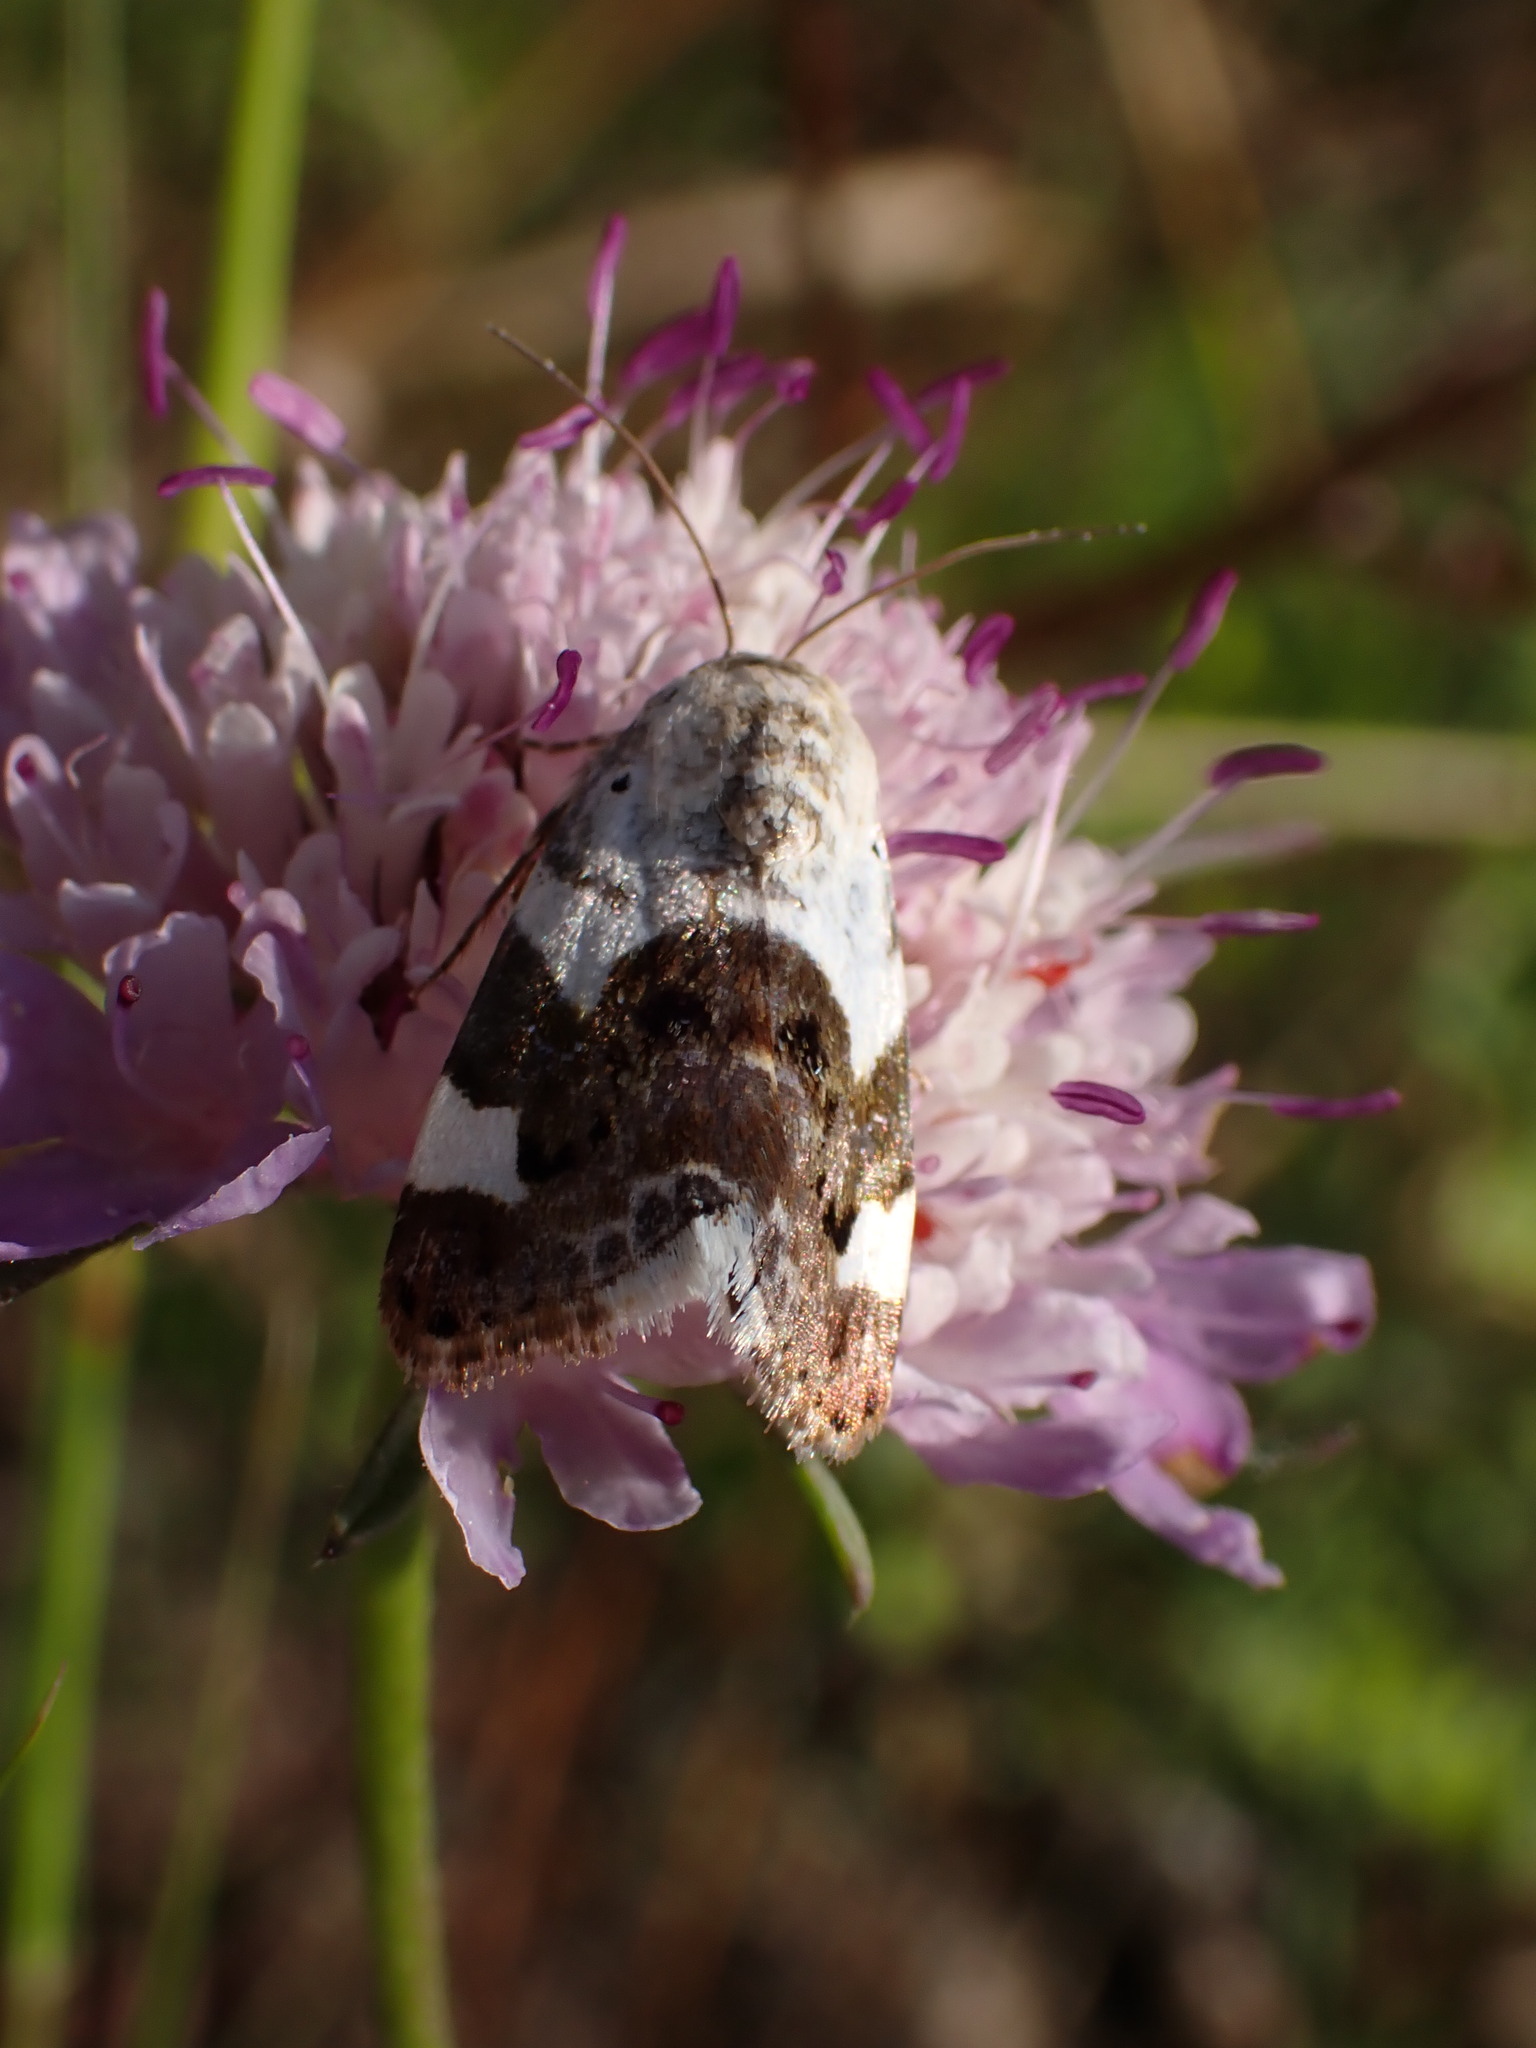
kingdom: Animalia
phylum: Arthropoda
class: Insecta
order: Lepidoptera
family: Noctuidae
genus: Acontia
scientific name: Acontia lucida
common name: Pale shoulder
